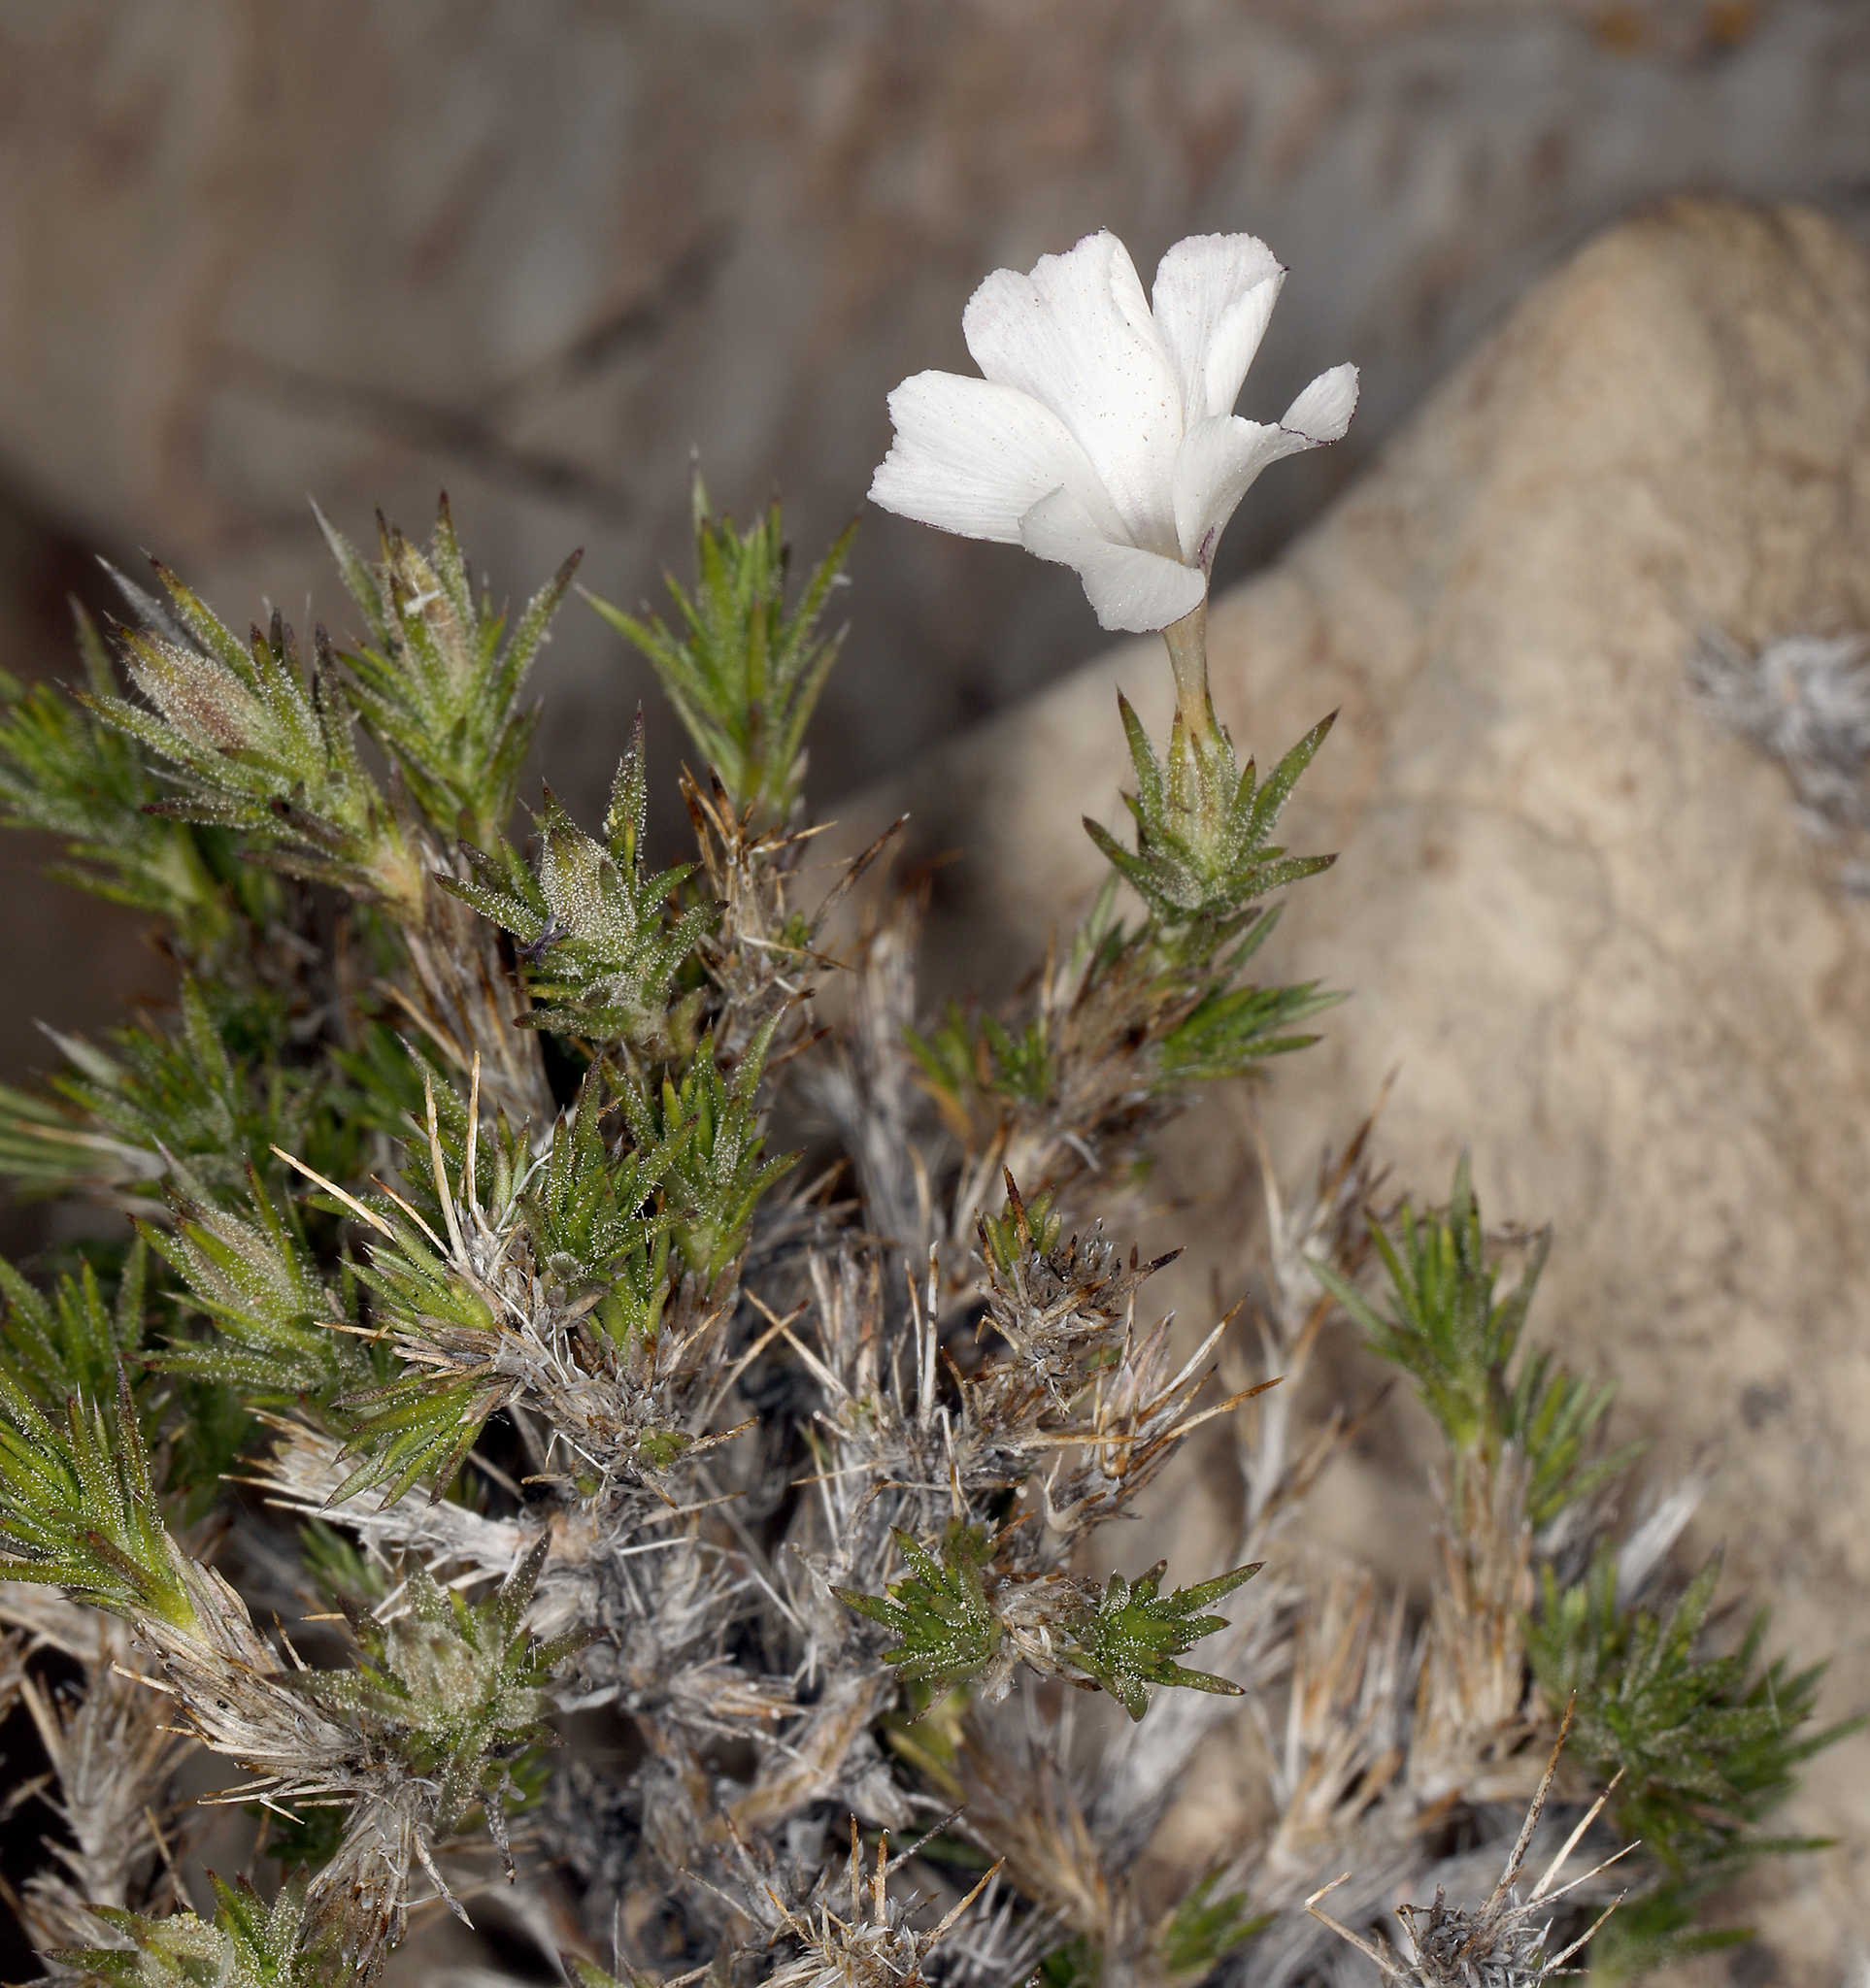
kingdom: Plantae
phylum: Tracheophyta
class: Magnoliopsida
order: Ericales
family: Polemoniaceae
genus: Linanthus
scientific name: Linanthus pungens
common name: Granite prickly phlox
